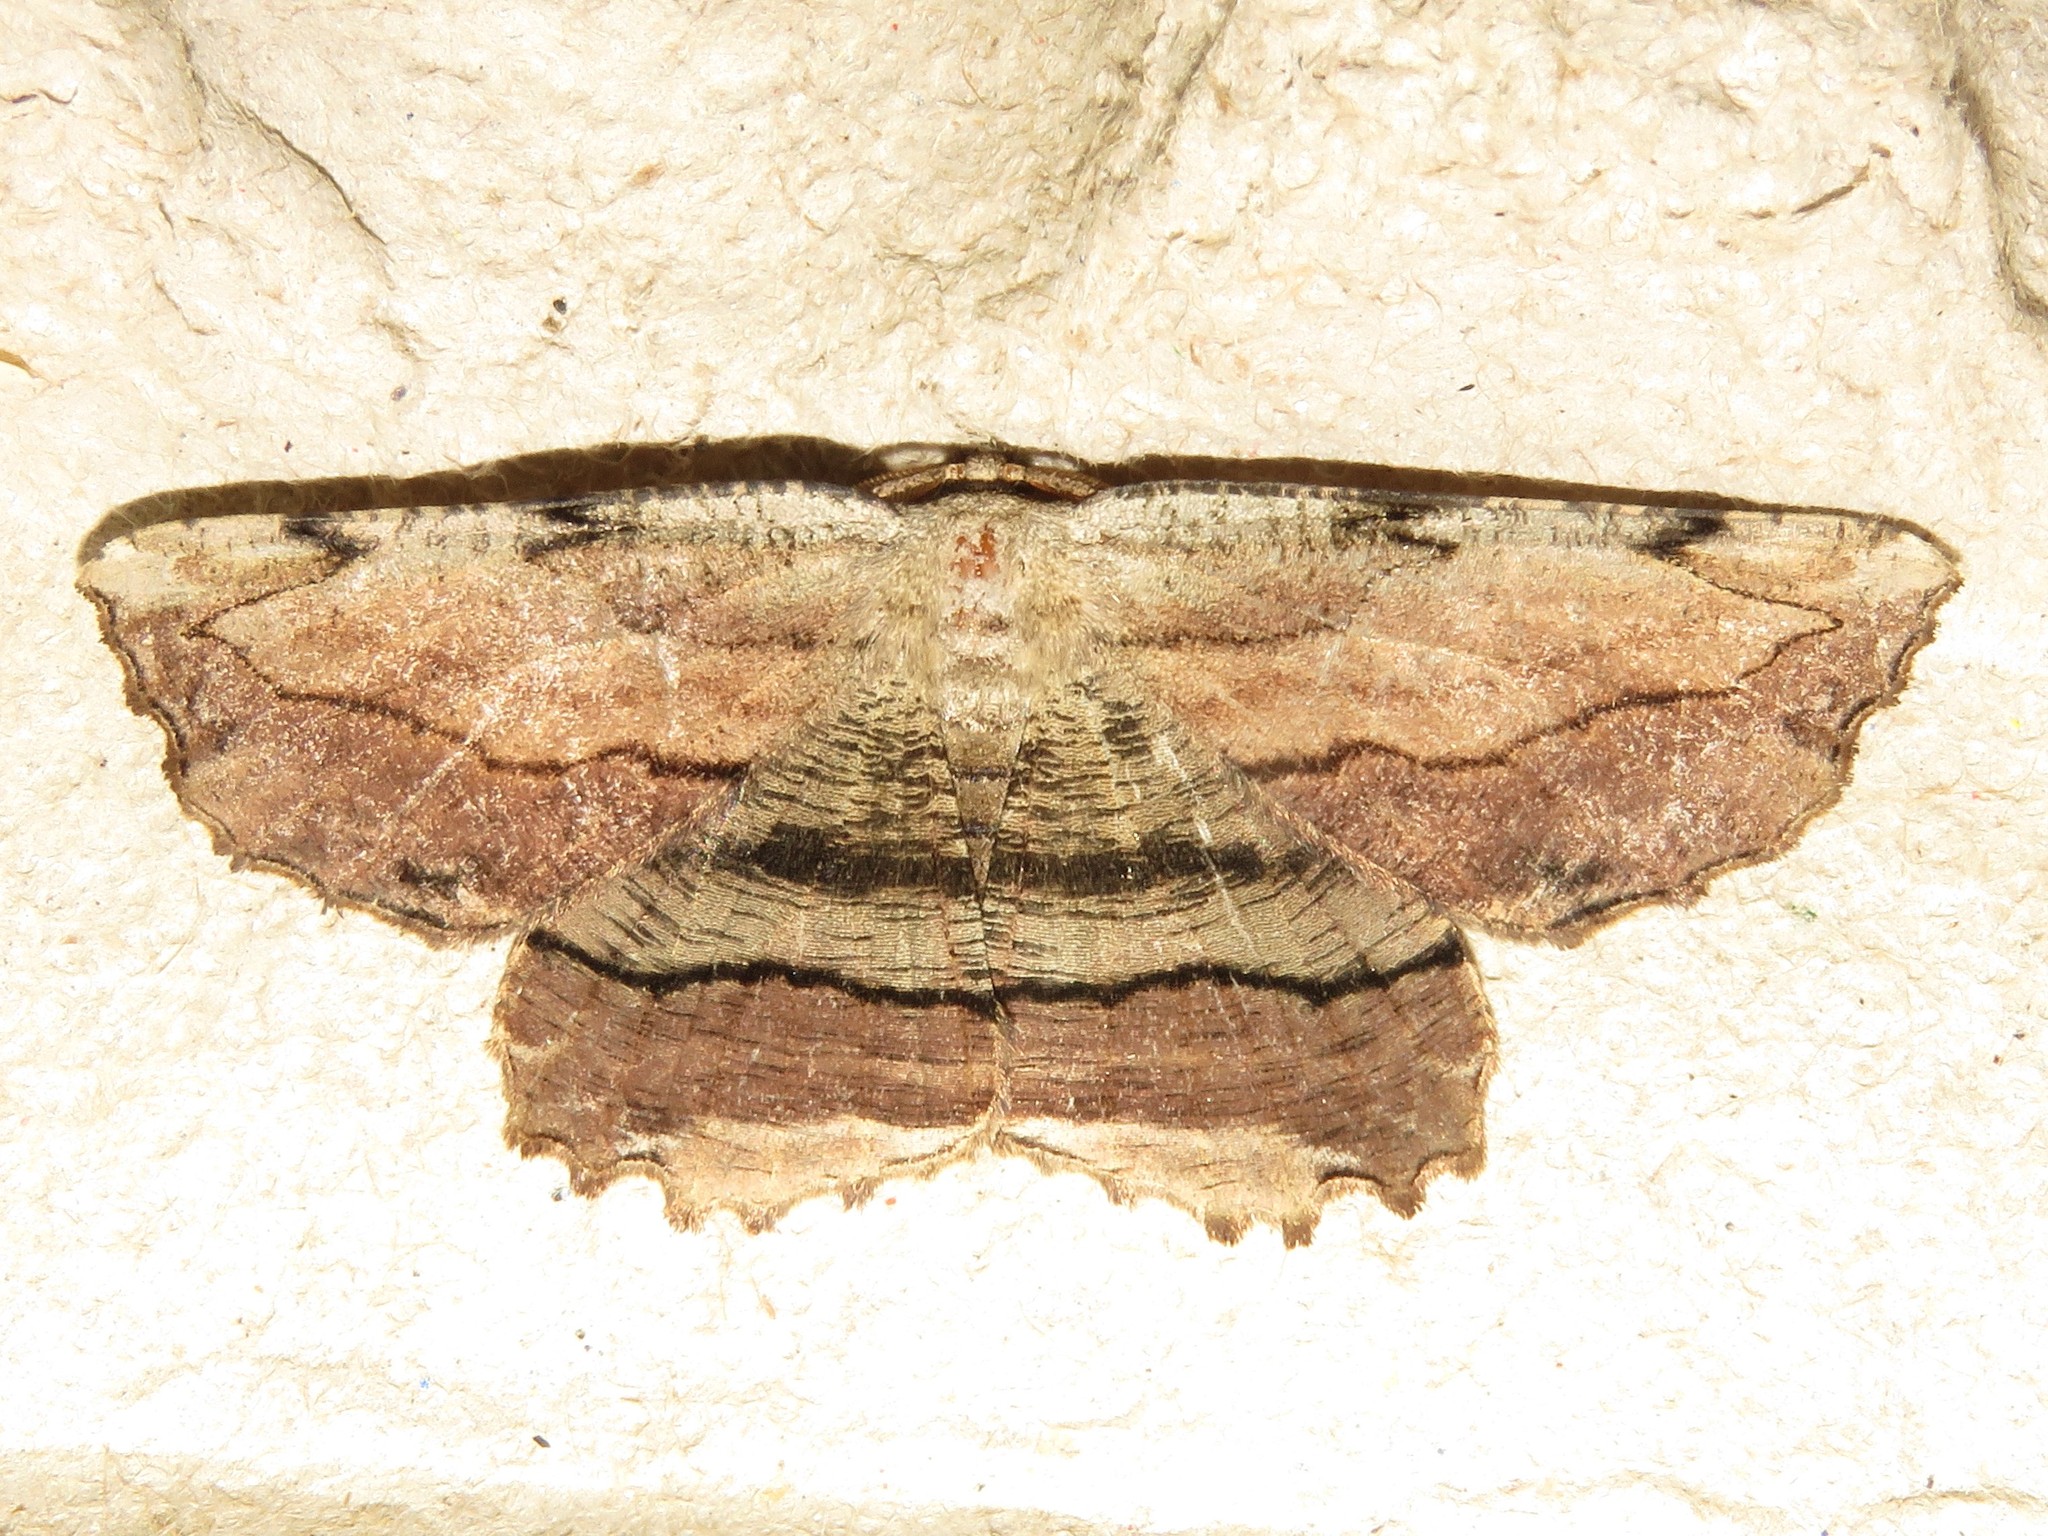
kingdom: Animalia
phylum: Arthropoda
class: Insecta
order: Lepidoptera
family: Geometridae
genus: Lytrosis
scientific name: Lytrosis unitaria
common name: Common lytrosis
